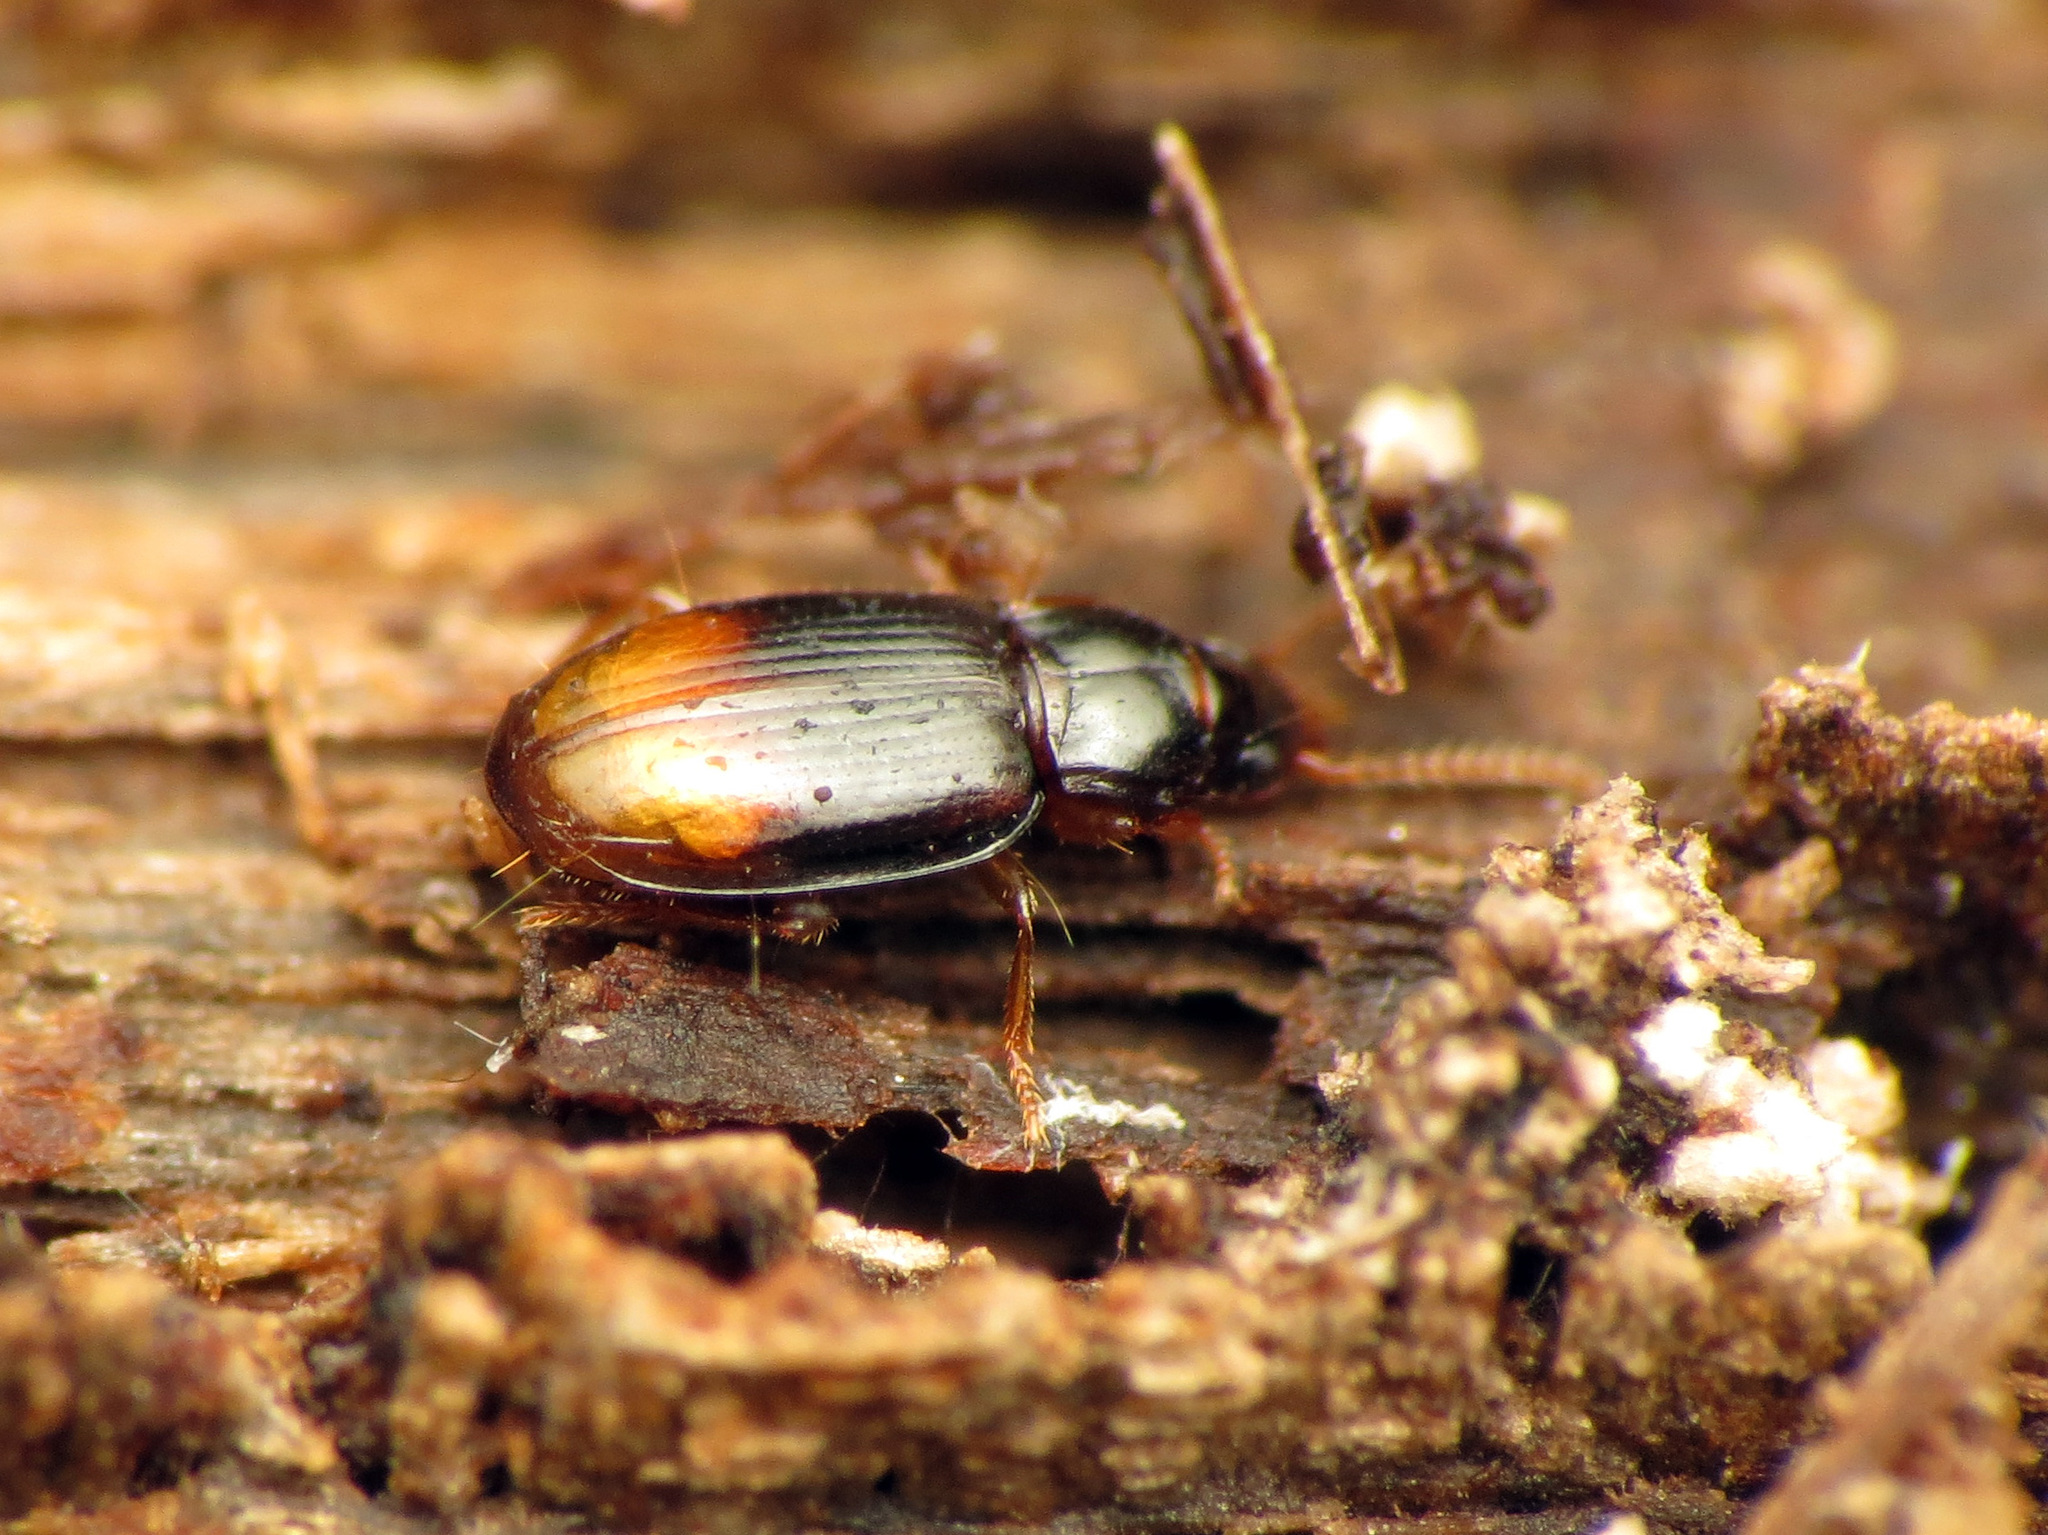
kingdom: Animalia
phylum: Arthropoda
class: Insecta
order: Coleoptera
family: Carabidae
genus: Mioptachys
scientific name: Mioptachys flavicauda
